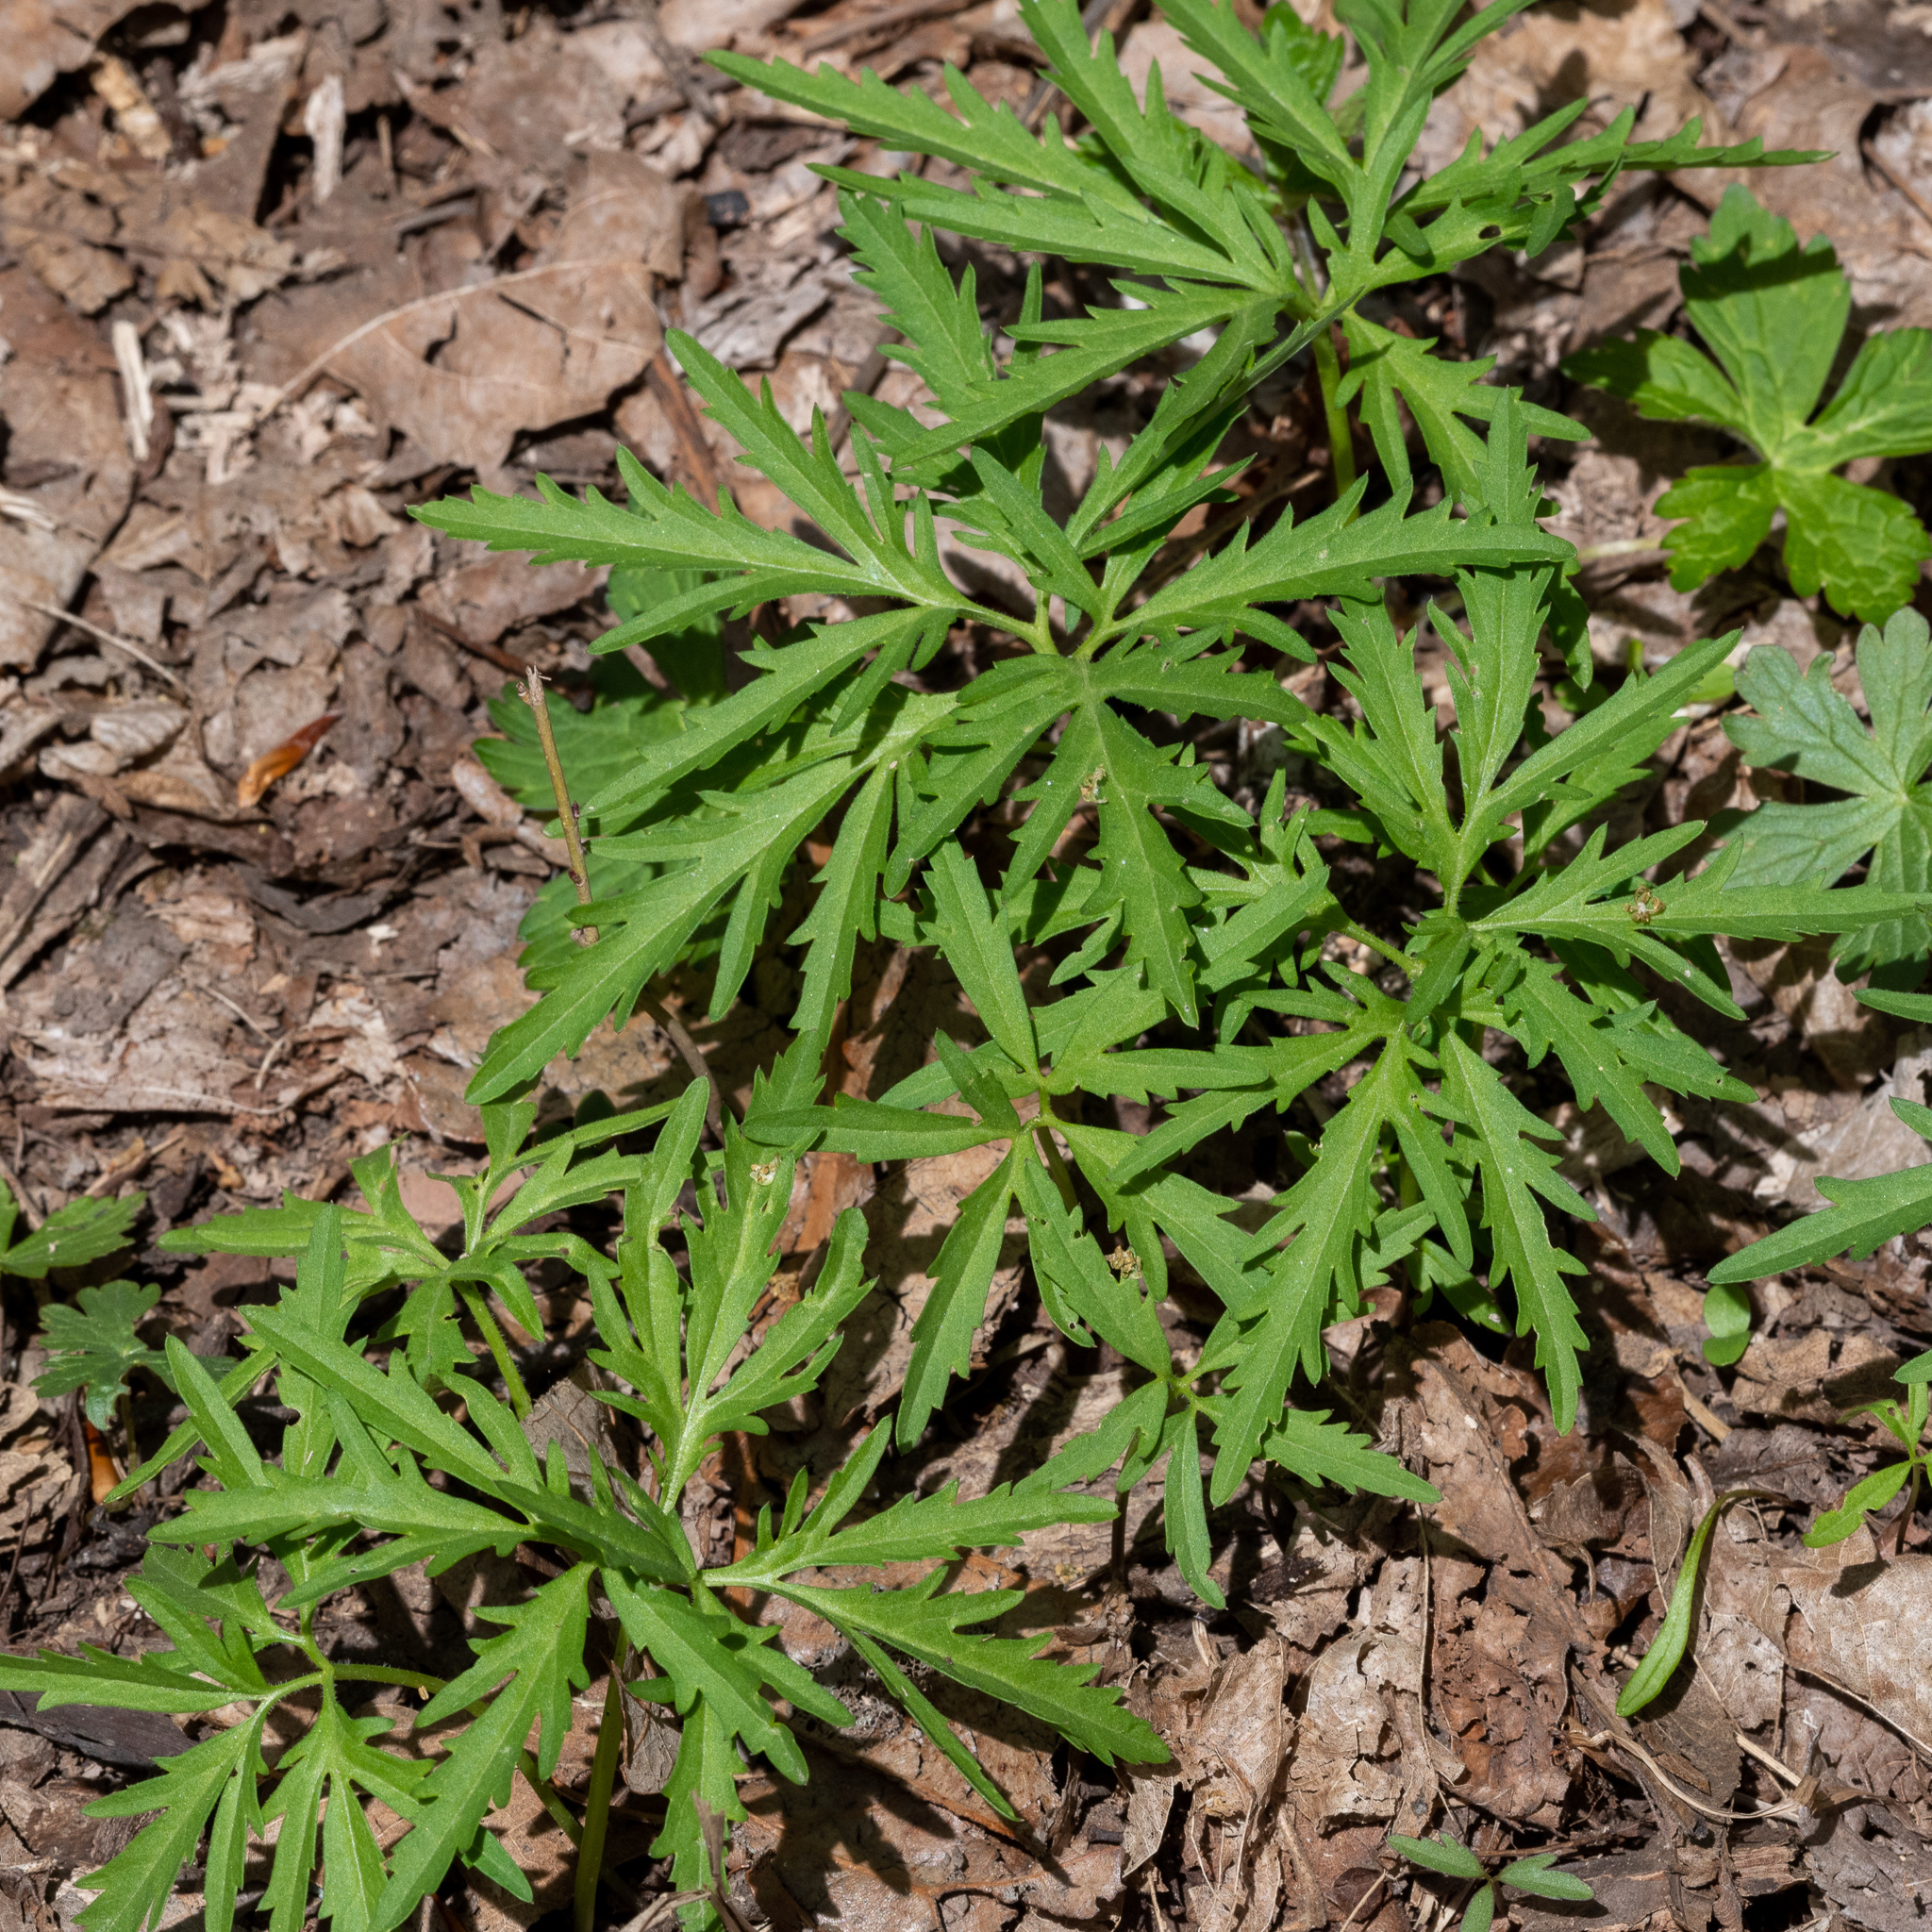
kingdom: Plantae
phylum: Tracheophyta
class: Magnoliopsida
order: Brassicales
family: Brassicaceae
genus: Cardamine
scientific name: Cardamine concatenata
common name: Cut-leaf toothcup
